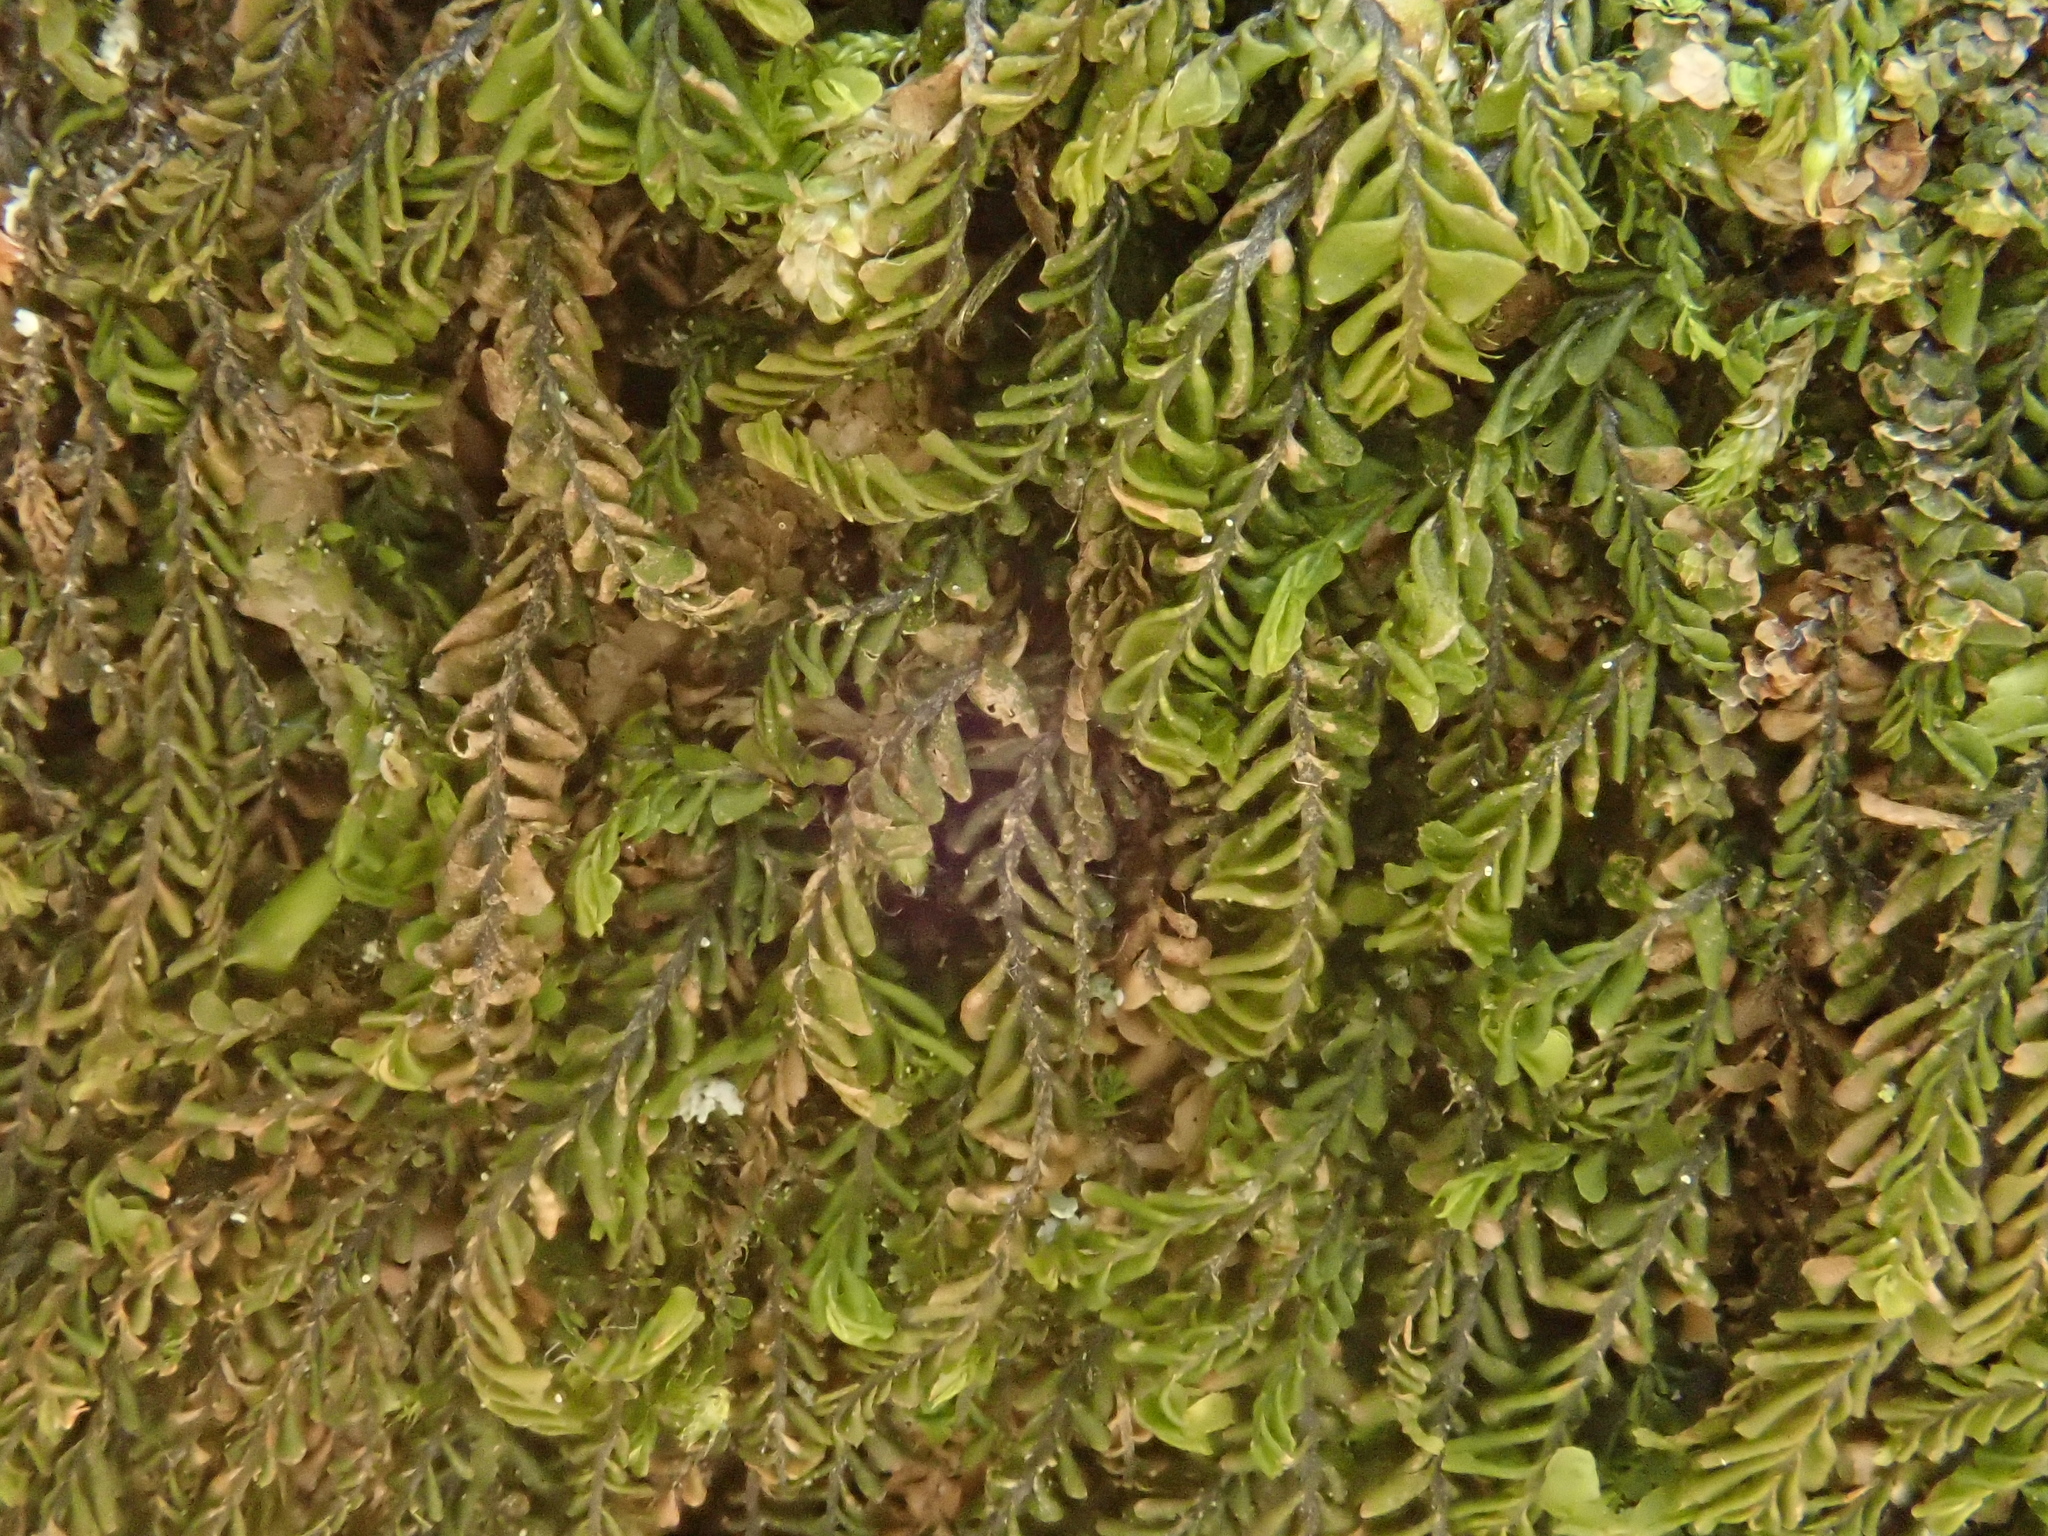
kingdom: Plantae
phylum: Marchantiophyta
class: Jungermanniopsida
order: Jungermanniales
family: Plagiochilaceae
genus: Plagiochila
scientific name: Plagiochila porelloides
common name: Lesser featherwort
